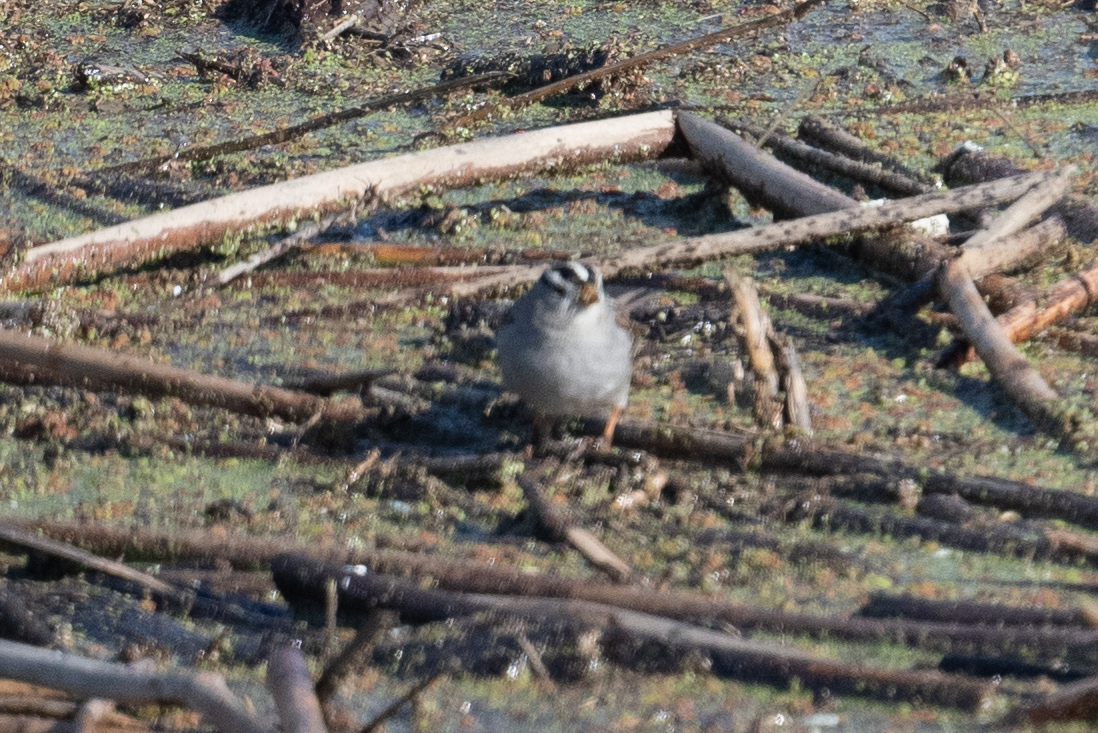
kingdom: Animalia
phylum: Chordata
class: Aves
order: Passeriformes
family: Passerellidae
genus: Zonotrichia
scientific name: Zonotrichia leucophrys
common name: White-crowned sparrow
